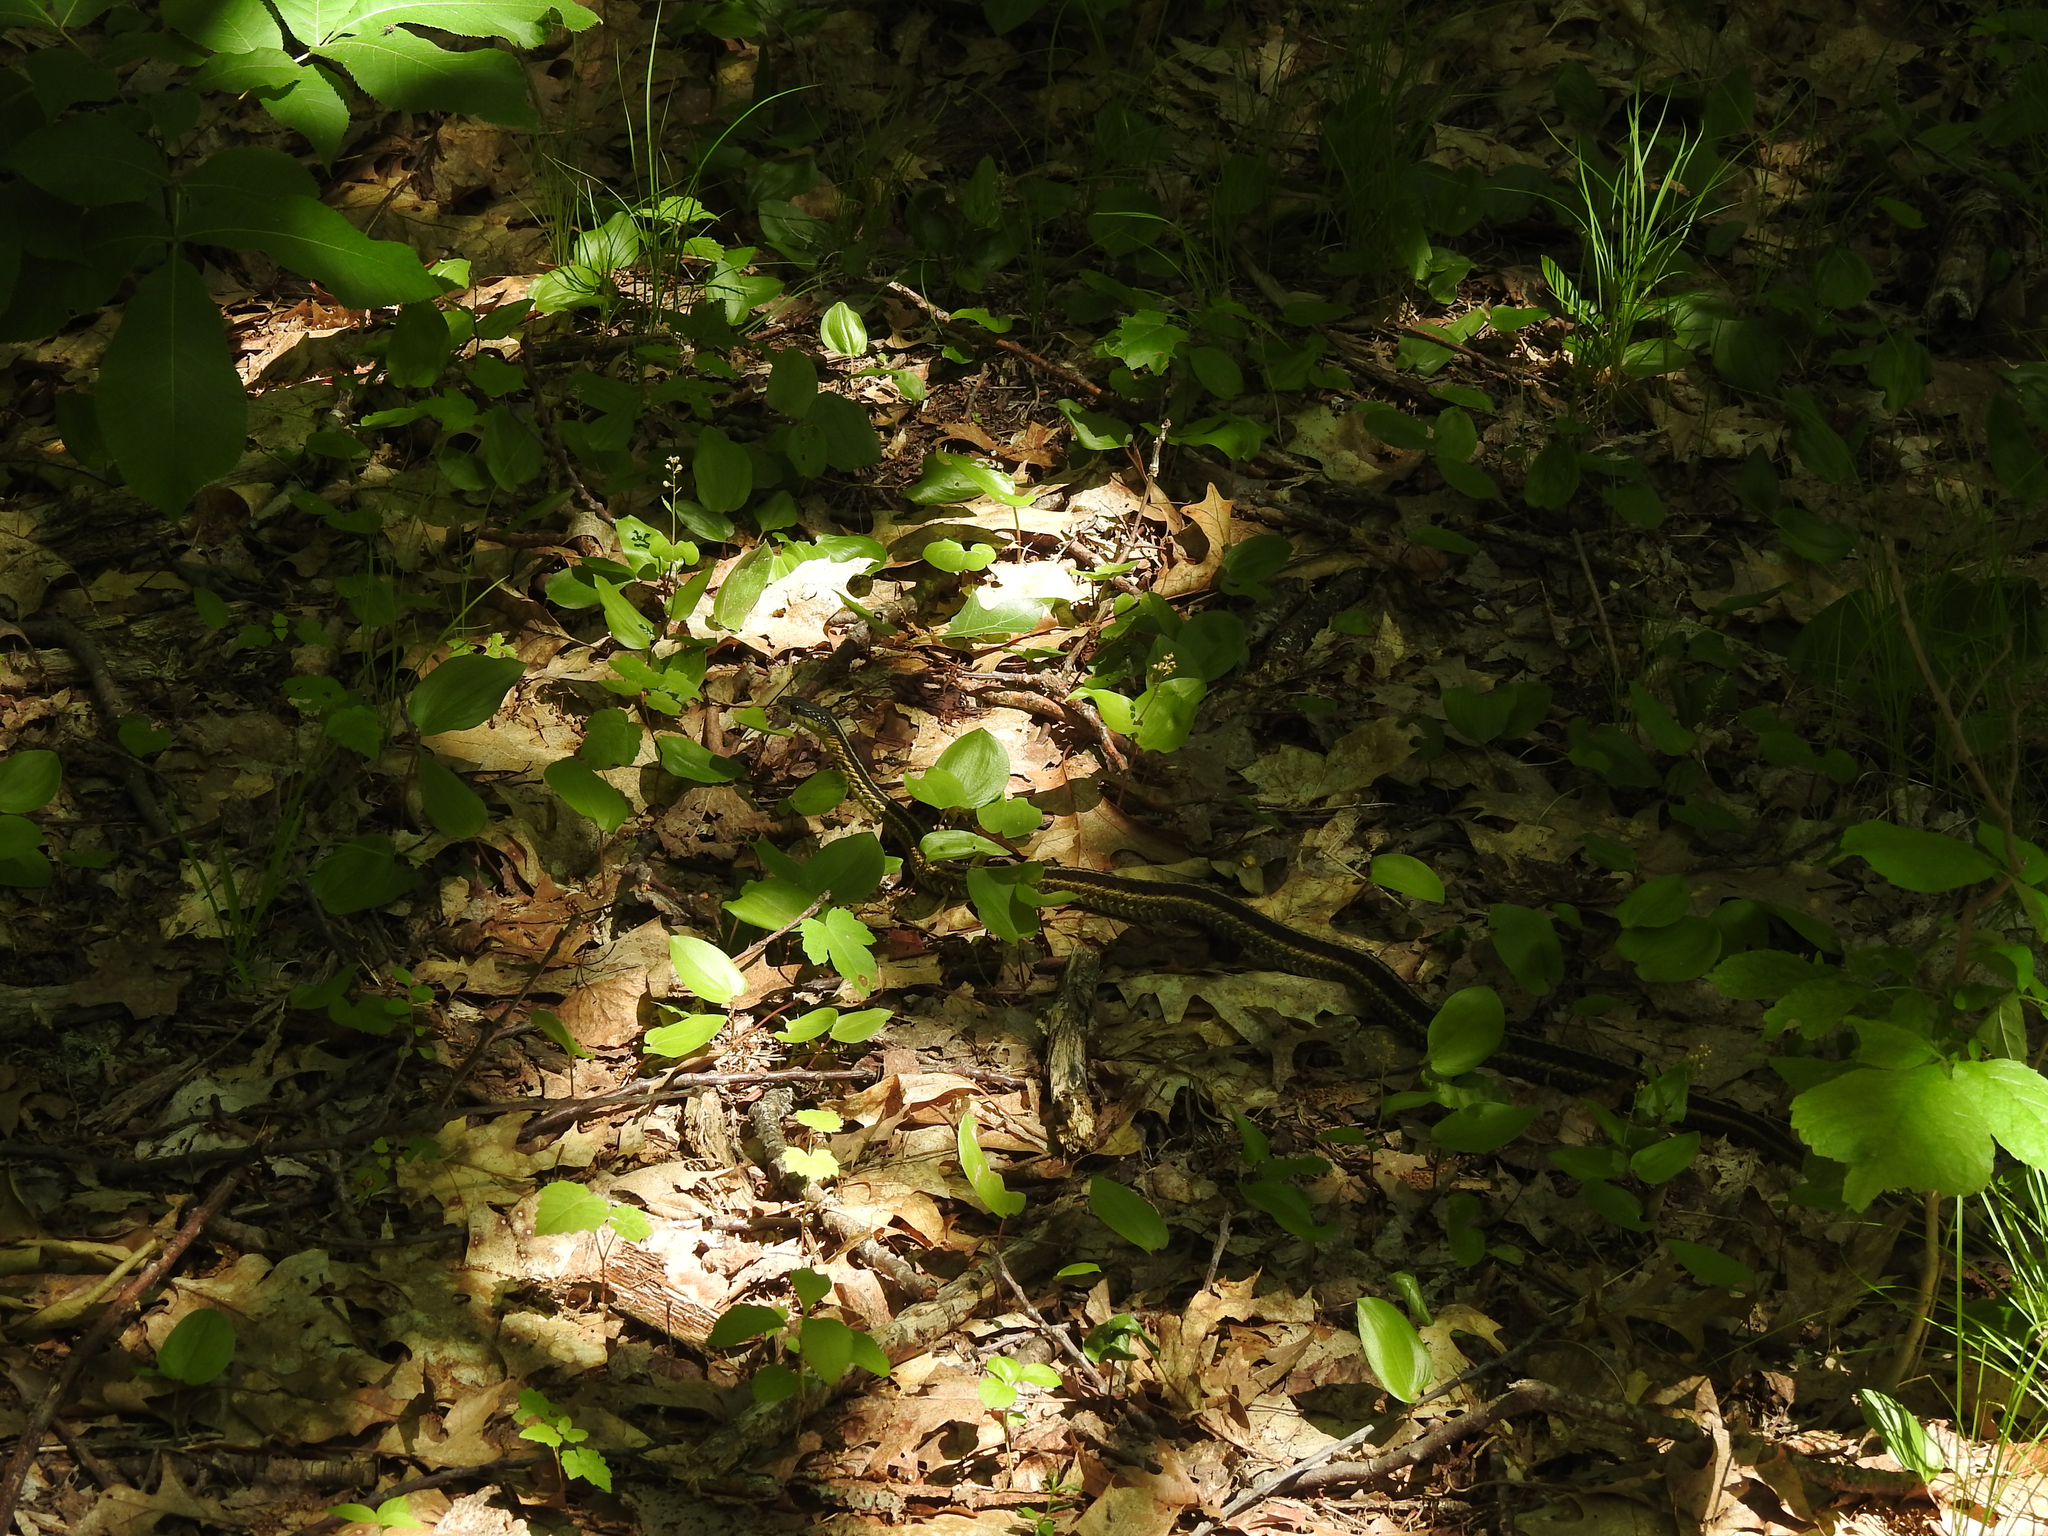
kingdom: Animalia
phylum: Chordata
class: Squamata
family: Colubridae
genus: Thamnophis
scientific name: Thamnophis sirtalis
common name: Common garter snake
